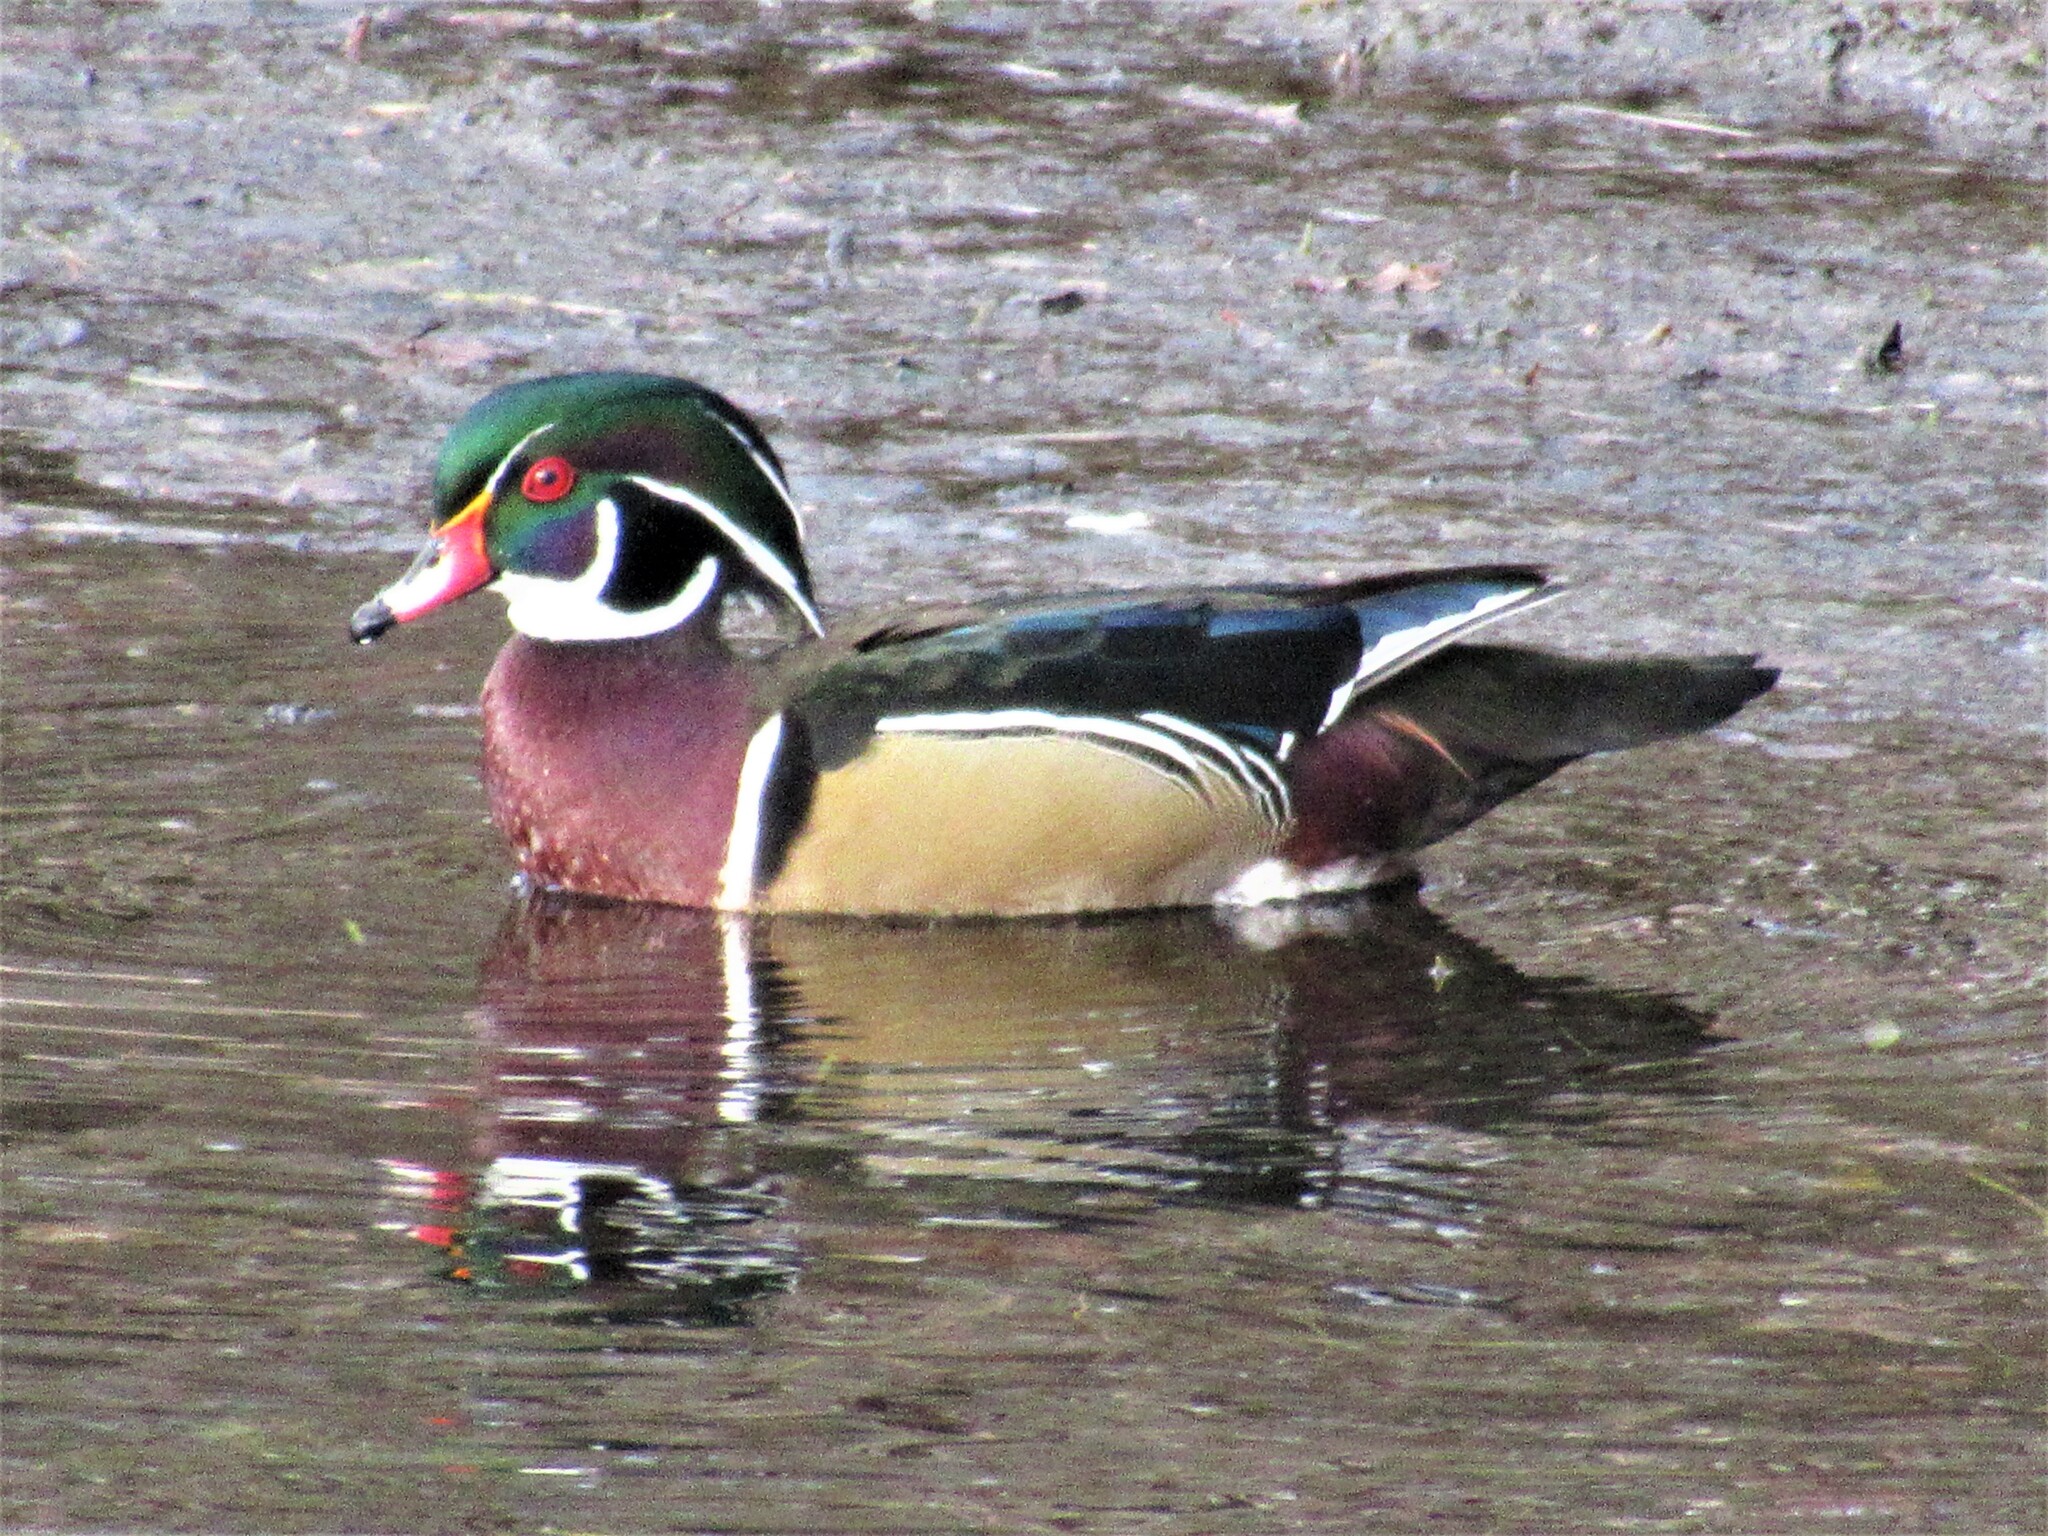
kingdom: Animalia
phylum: Chordata
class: Aves
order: Anseriformes
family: Anatidae
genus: Aix
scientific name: Aix sponsa
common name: Wood duck
